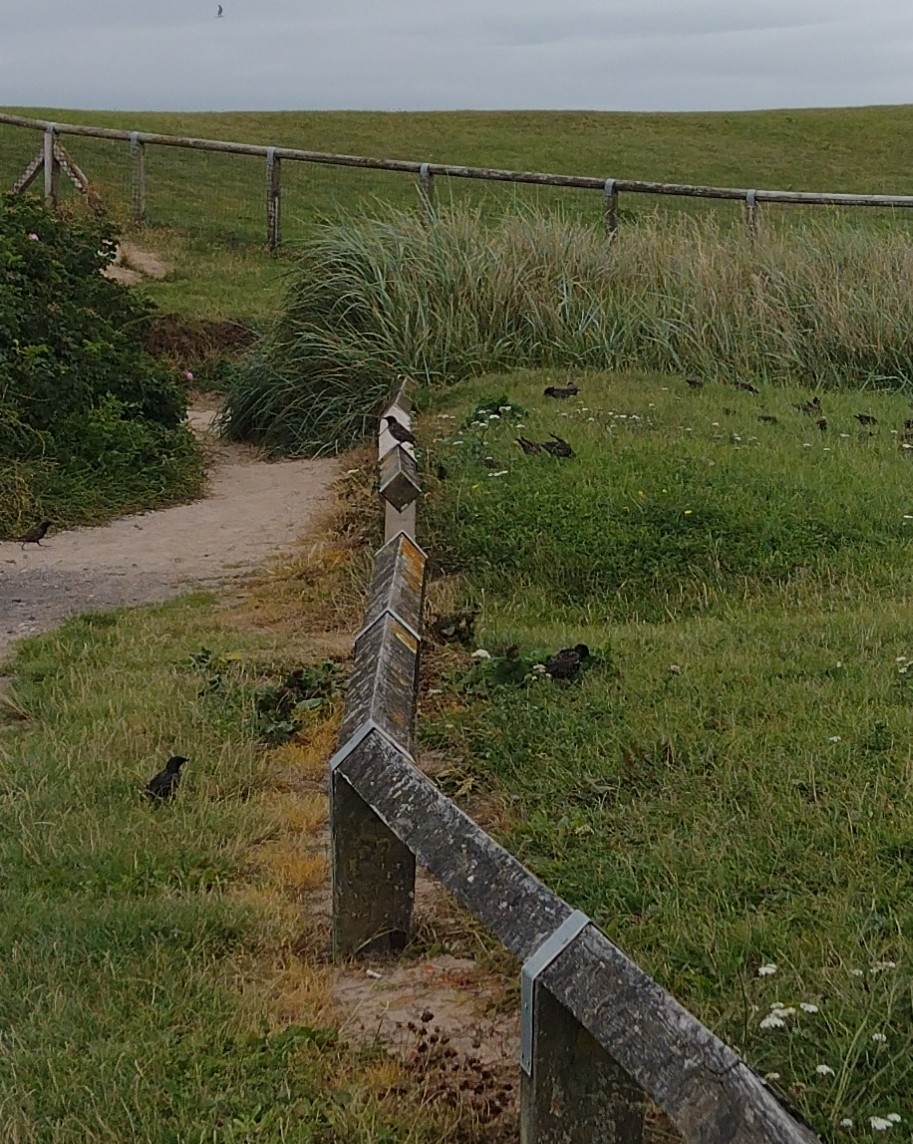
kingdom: Animalia
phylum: Chordata
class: Aves
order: Passeriformes
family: Sturnidae
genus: Sturnus
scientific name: Sturnus vulgaris
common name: Common starling
